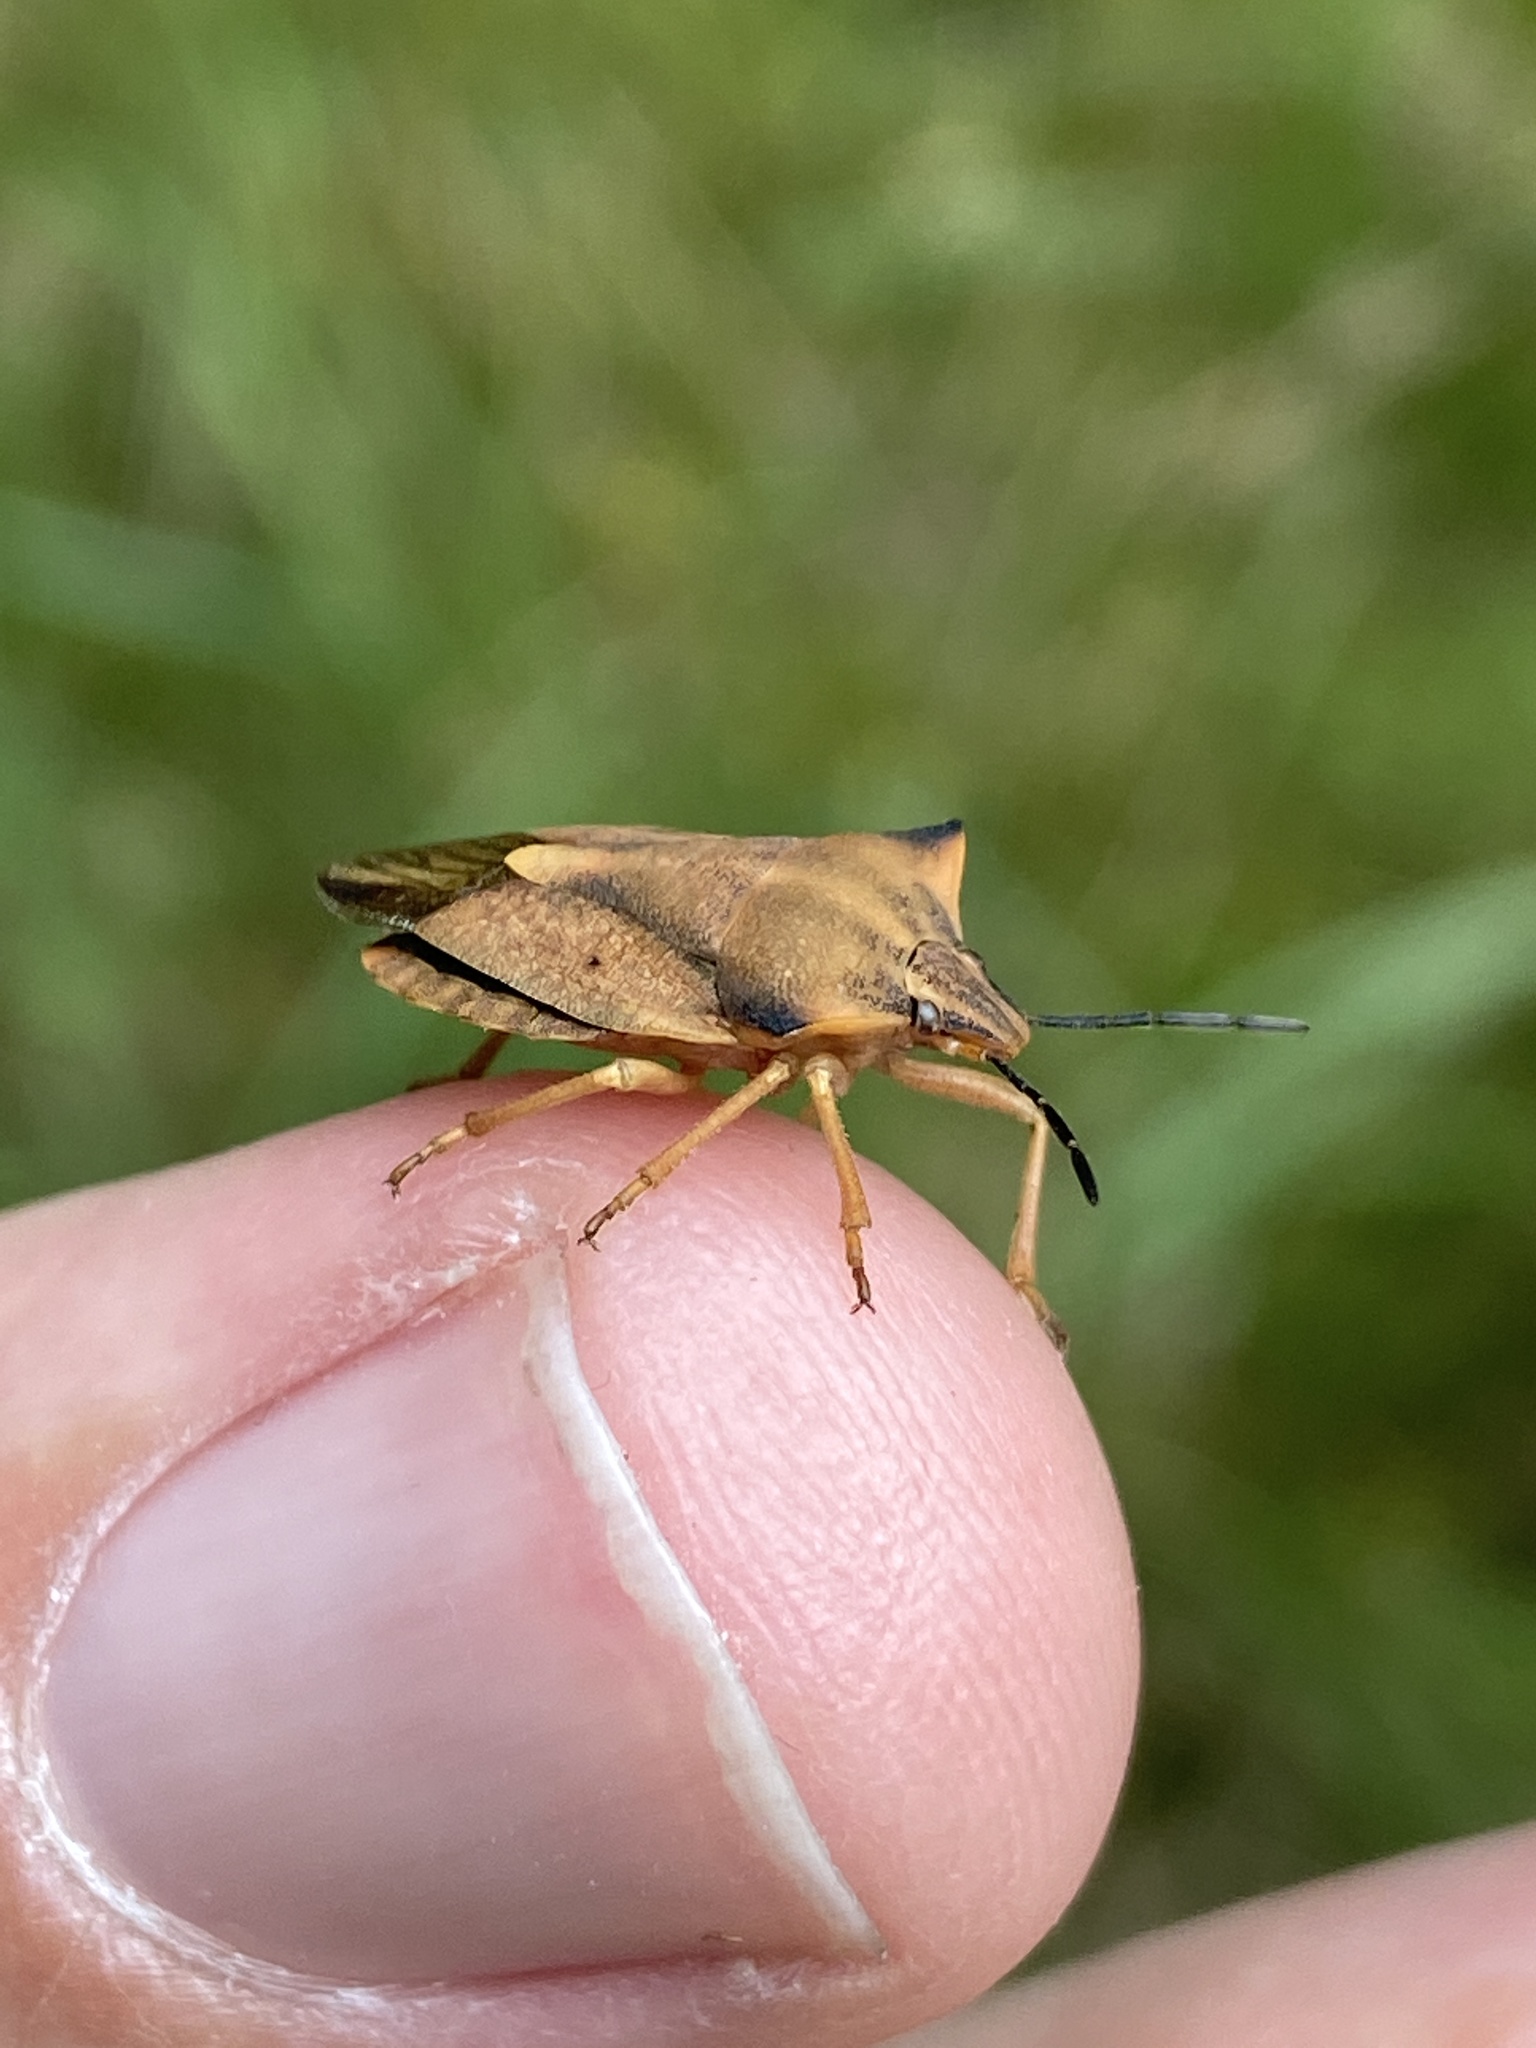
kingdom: Animalia
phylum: Arthropoda
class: Insecta
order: Hemiptera
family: Pentatomidae
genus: Carpocoris
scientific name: Carpocoris fuscispinus
